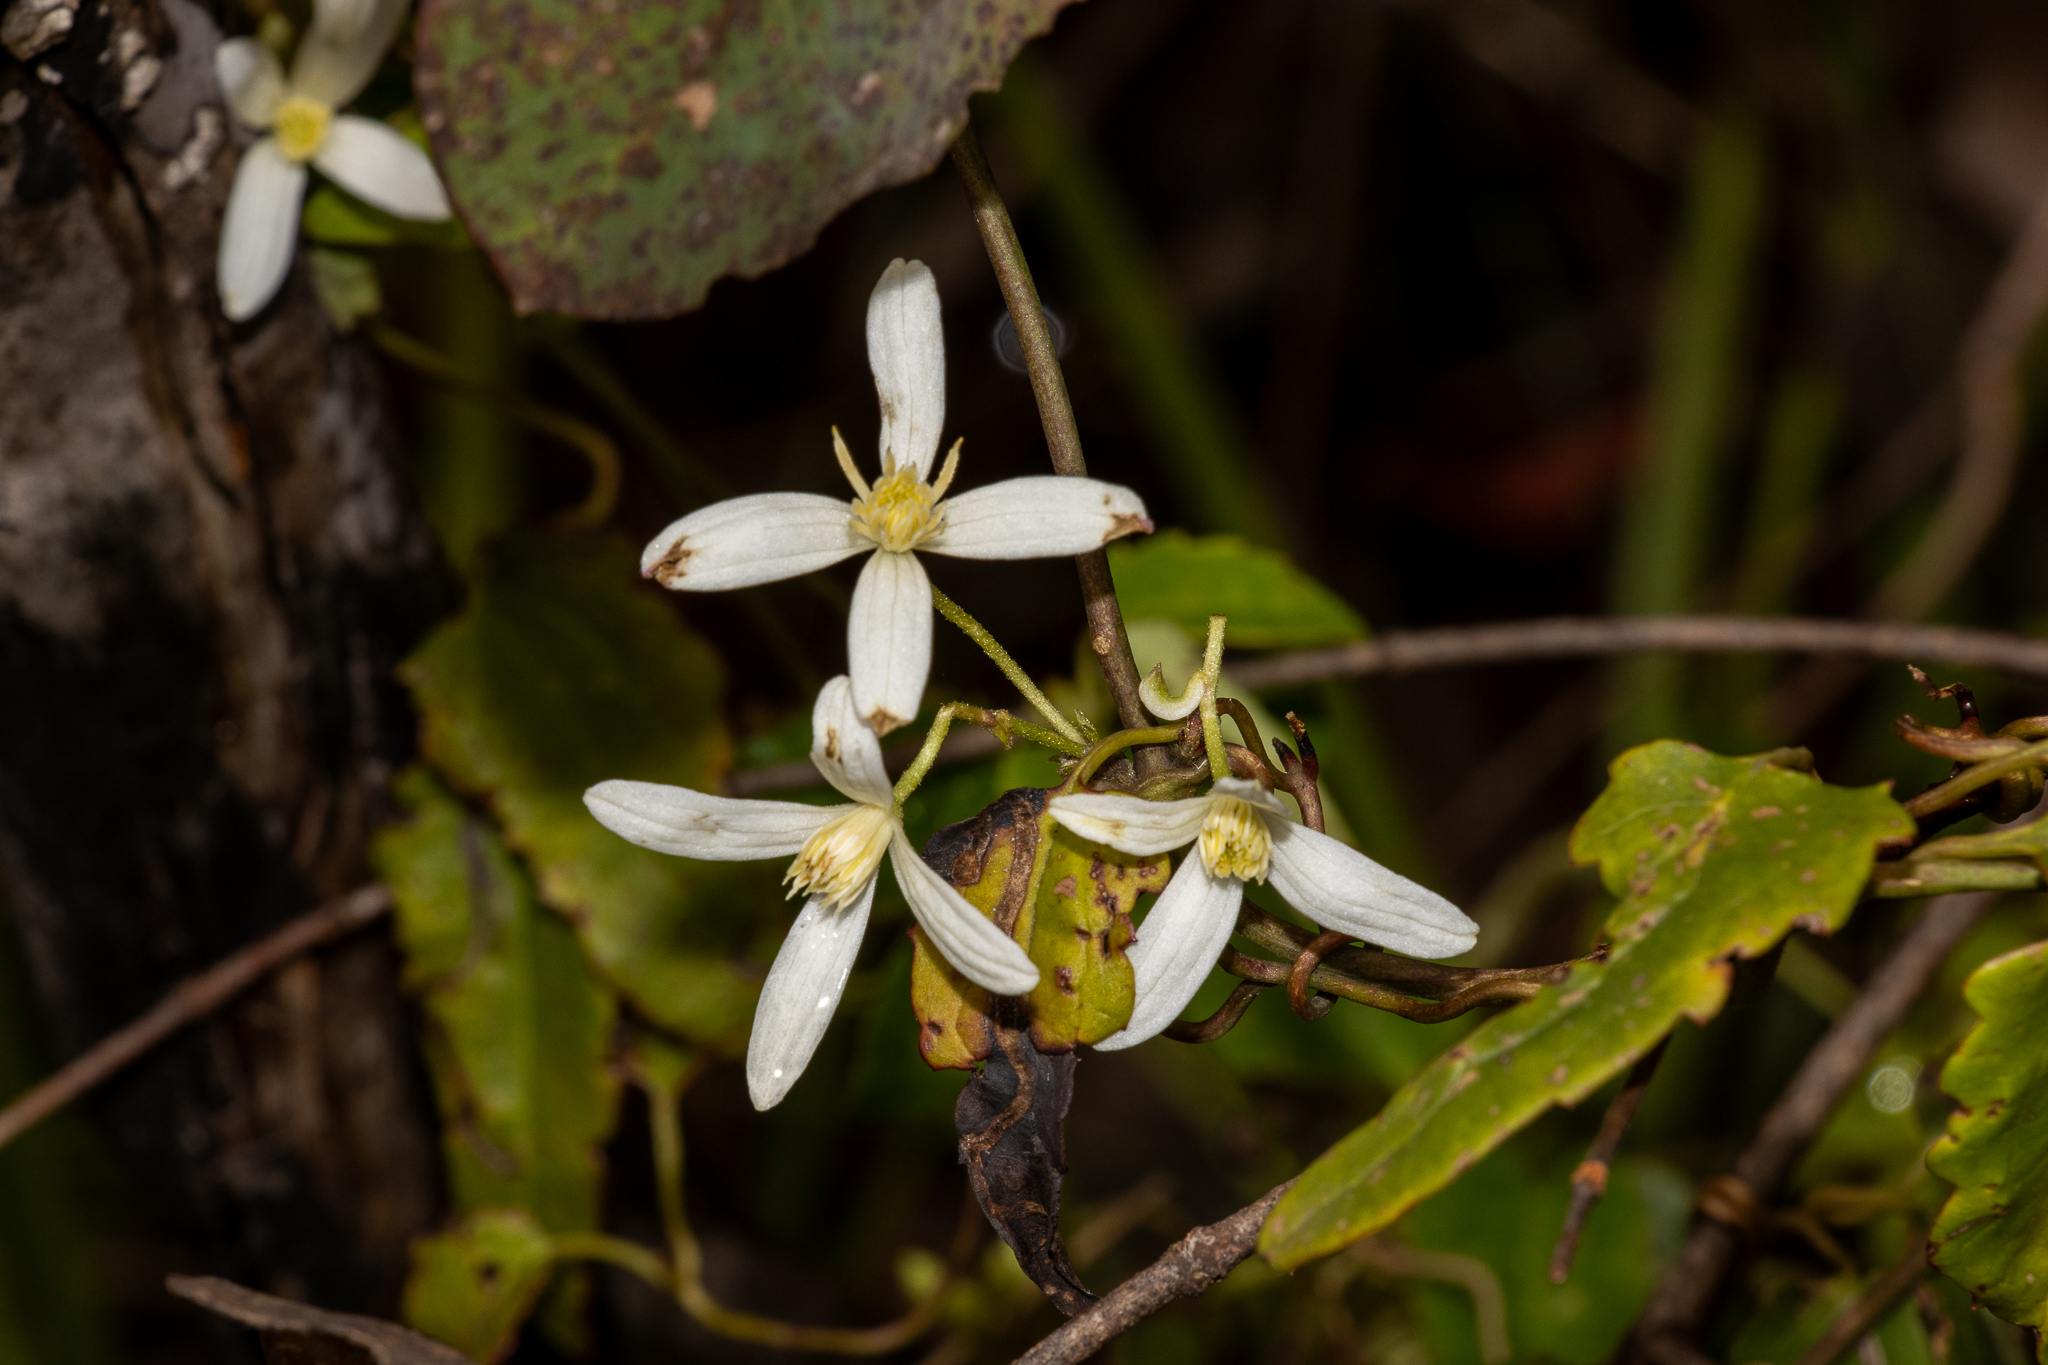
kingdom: Plantae
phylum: Tracheophyta
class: Magnoliopsida
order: Ranunculales
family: Ranunculaceae
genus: Clematis
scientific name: Clematis aristata
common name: Mountain clematis
